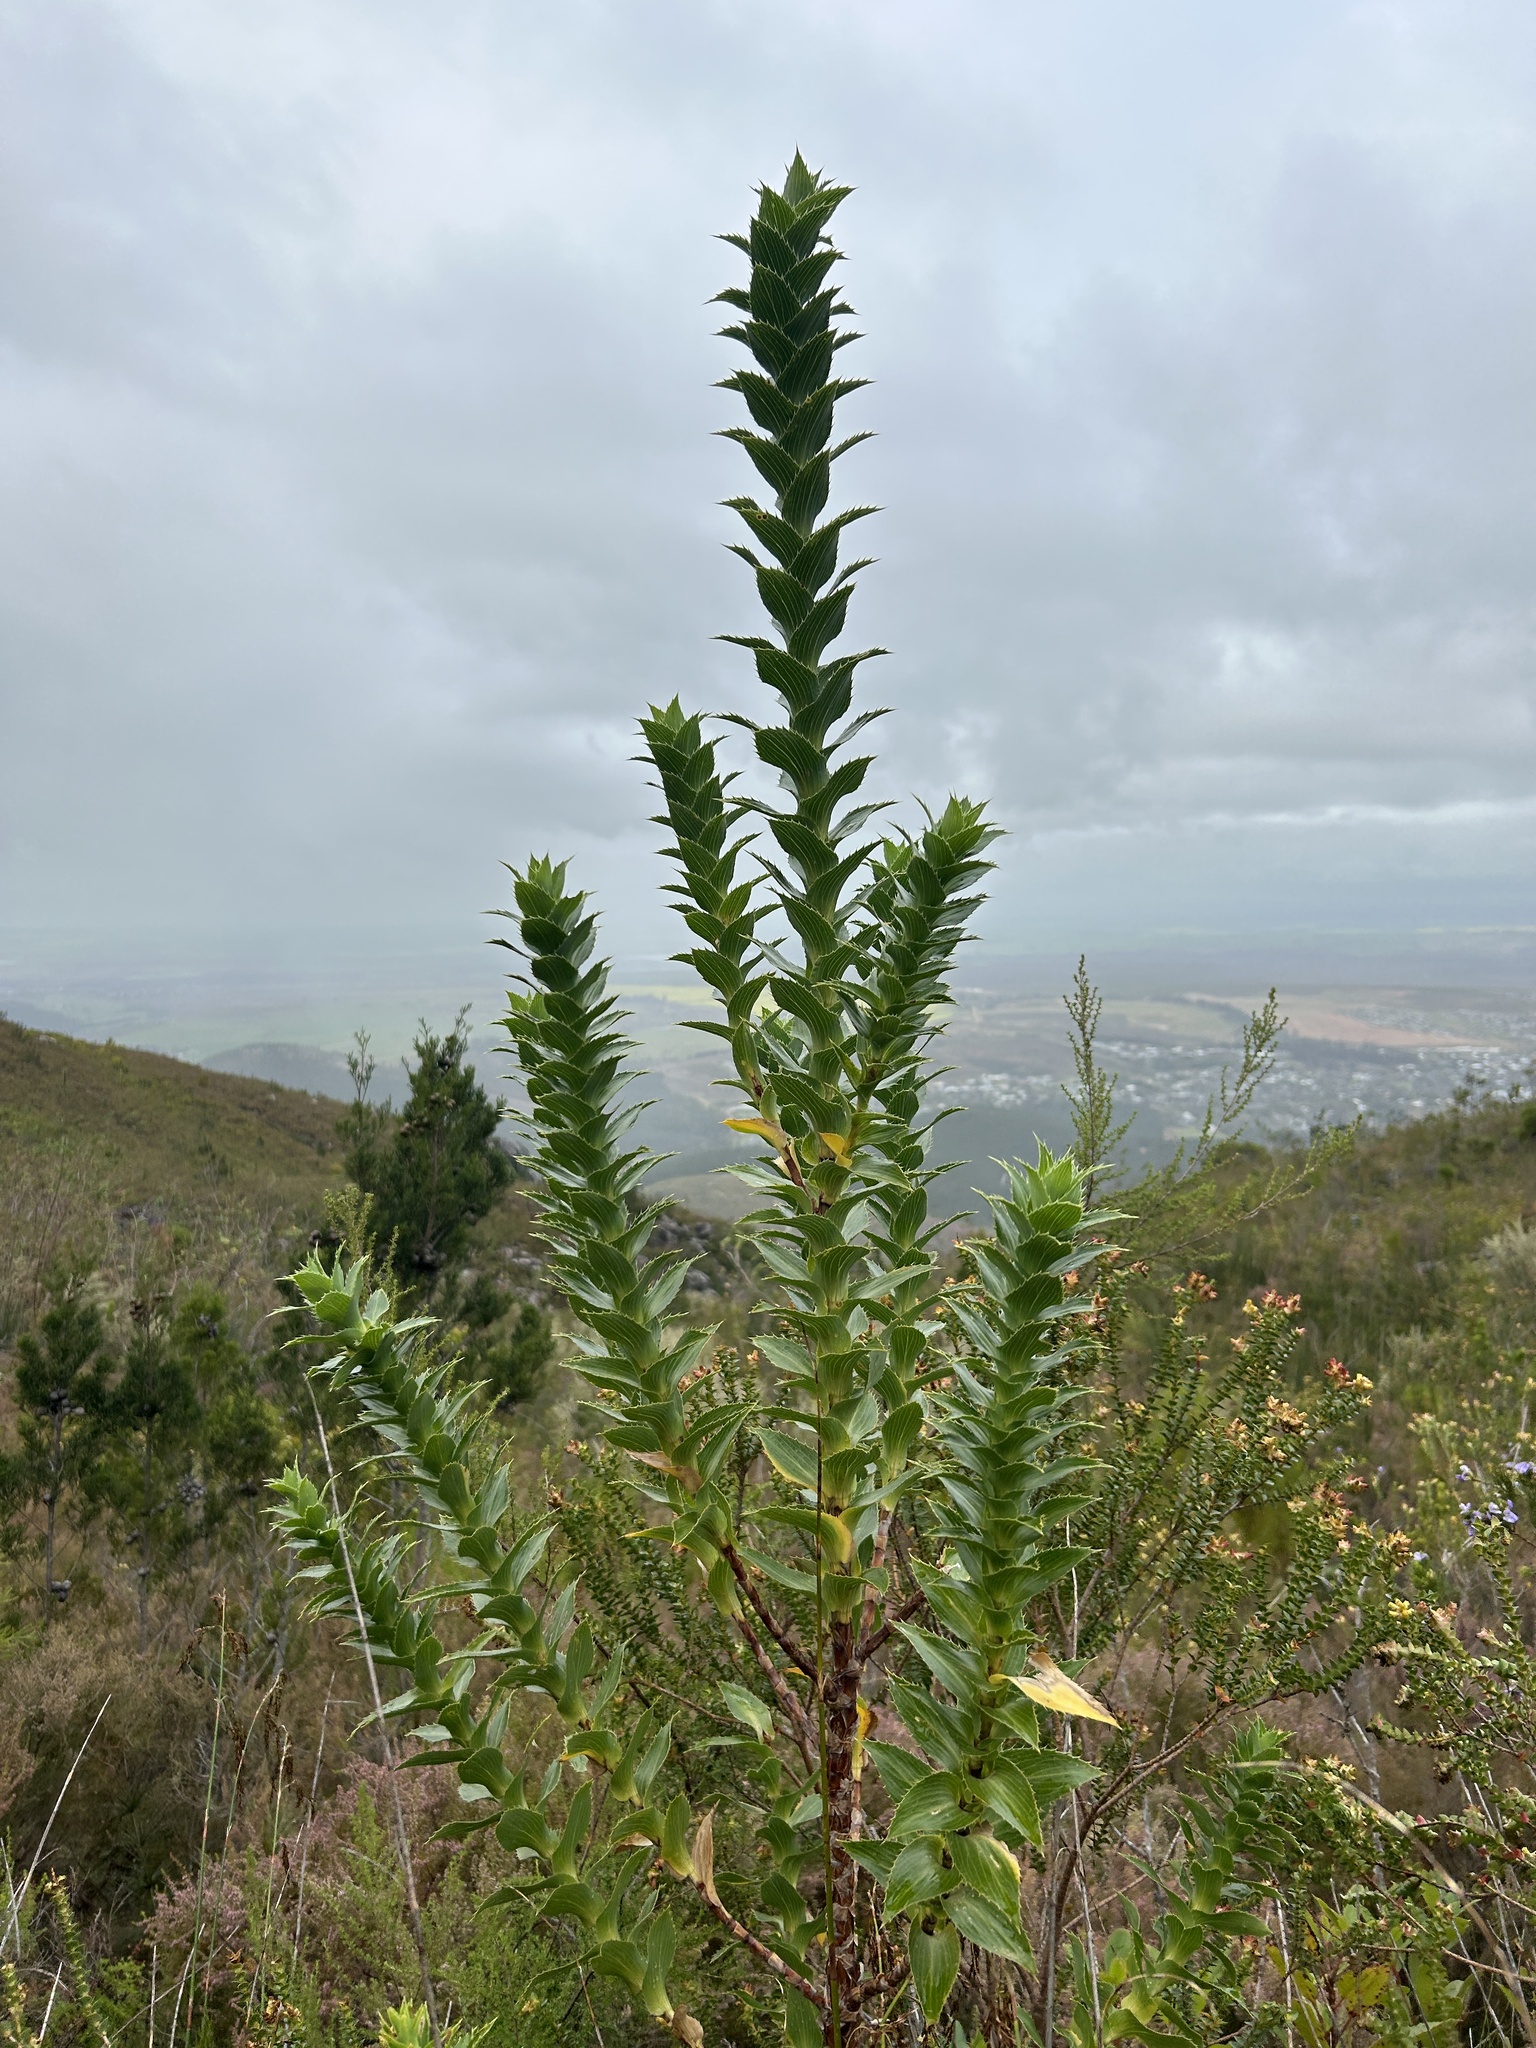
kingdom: Plantae
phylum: Tracheophyta
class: Magnoliopsida
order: Rosales
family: Rosaceae
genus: Cliffortia
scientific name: Cliffortia grandifolia
